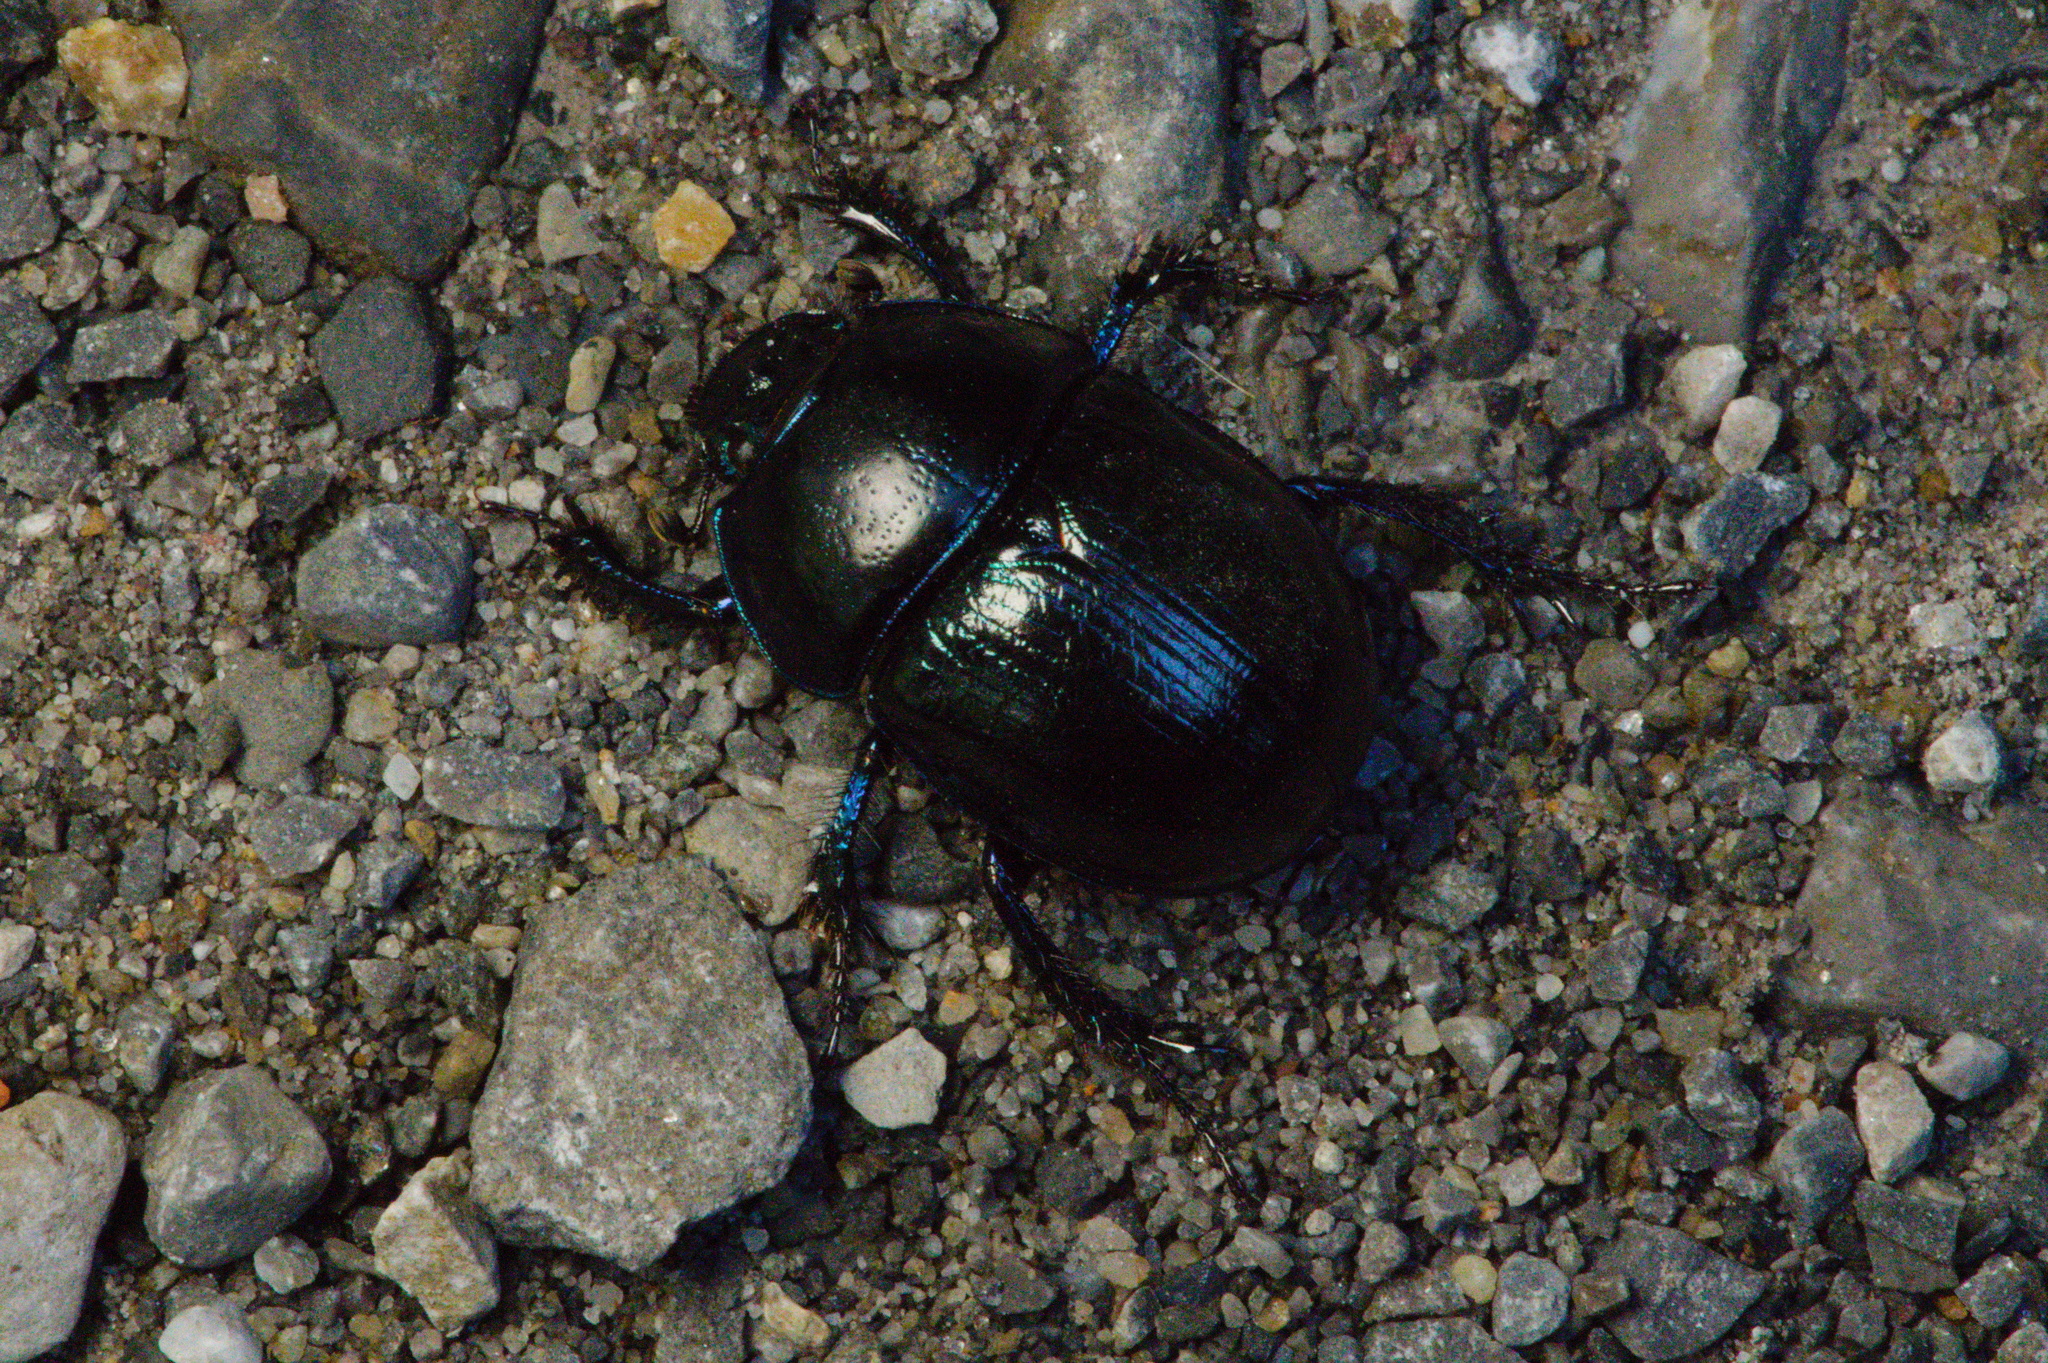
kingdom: Animalia
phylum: Arthropoda
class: Insecta
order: Coleoptera
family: Geotrupidae
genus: Anoplotrupes
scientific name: Anoplotrupes stercorosus
